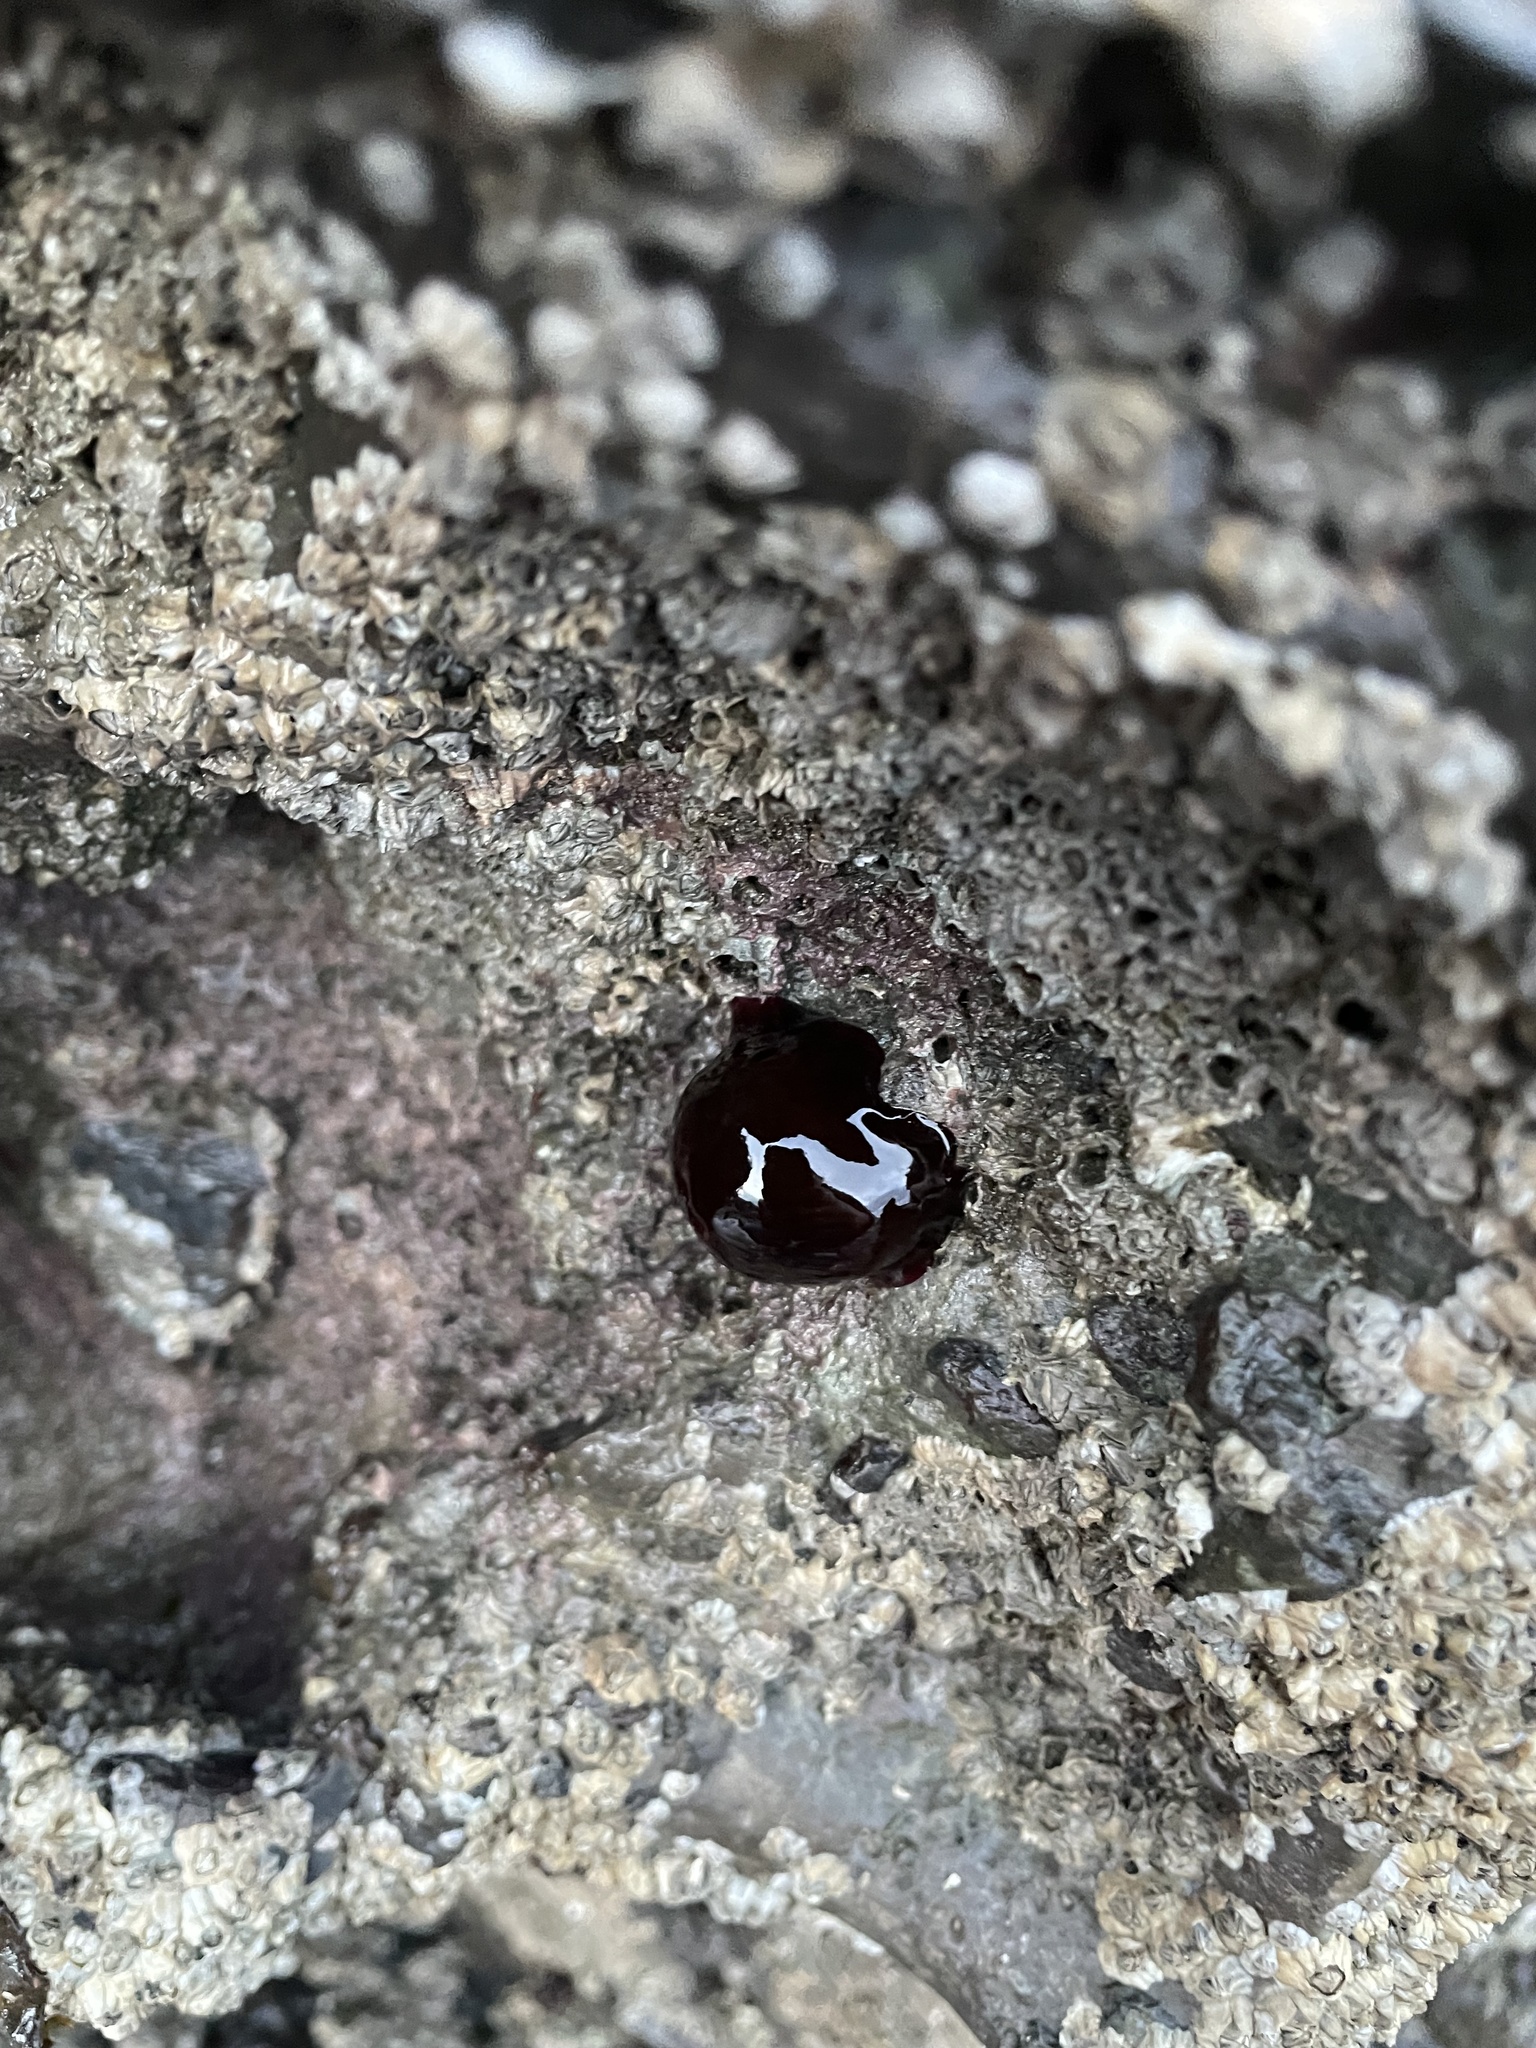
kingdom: Animalia
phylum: Cnidaria
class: Anthozoa
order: Actiniaria
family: Actiniidae
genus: Actinia
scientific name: Actinia equina
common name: Beadlet anemone
